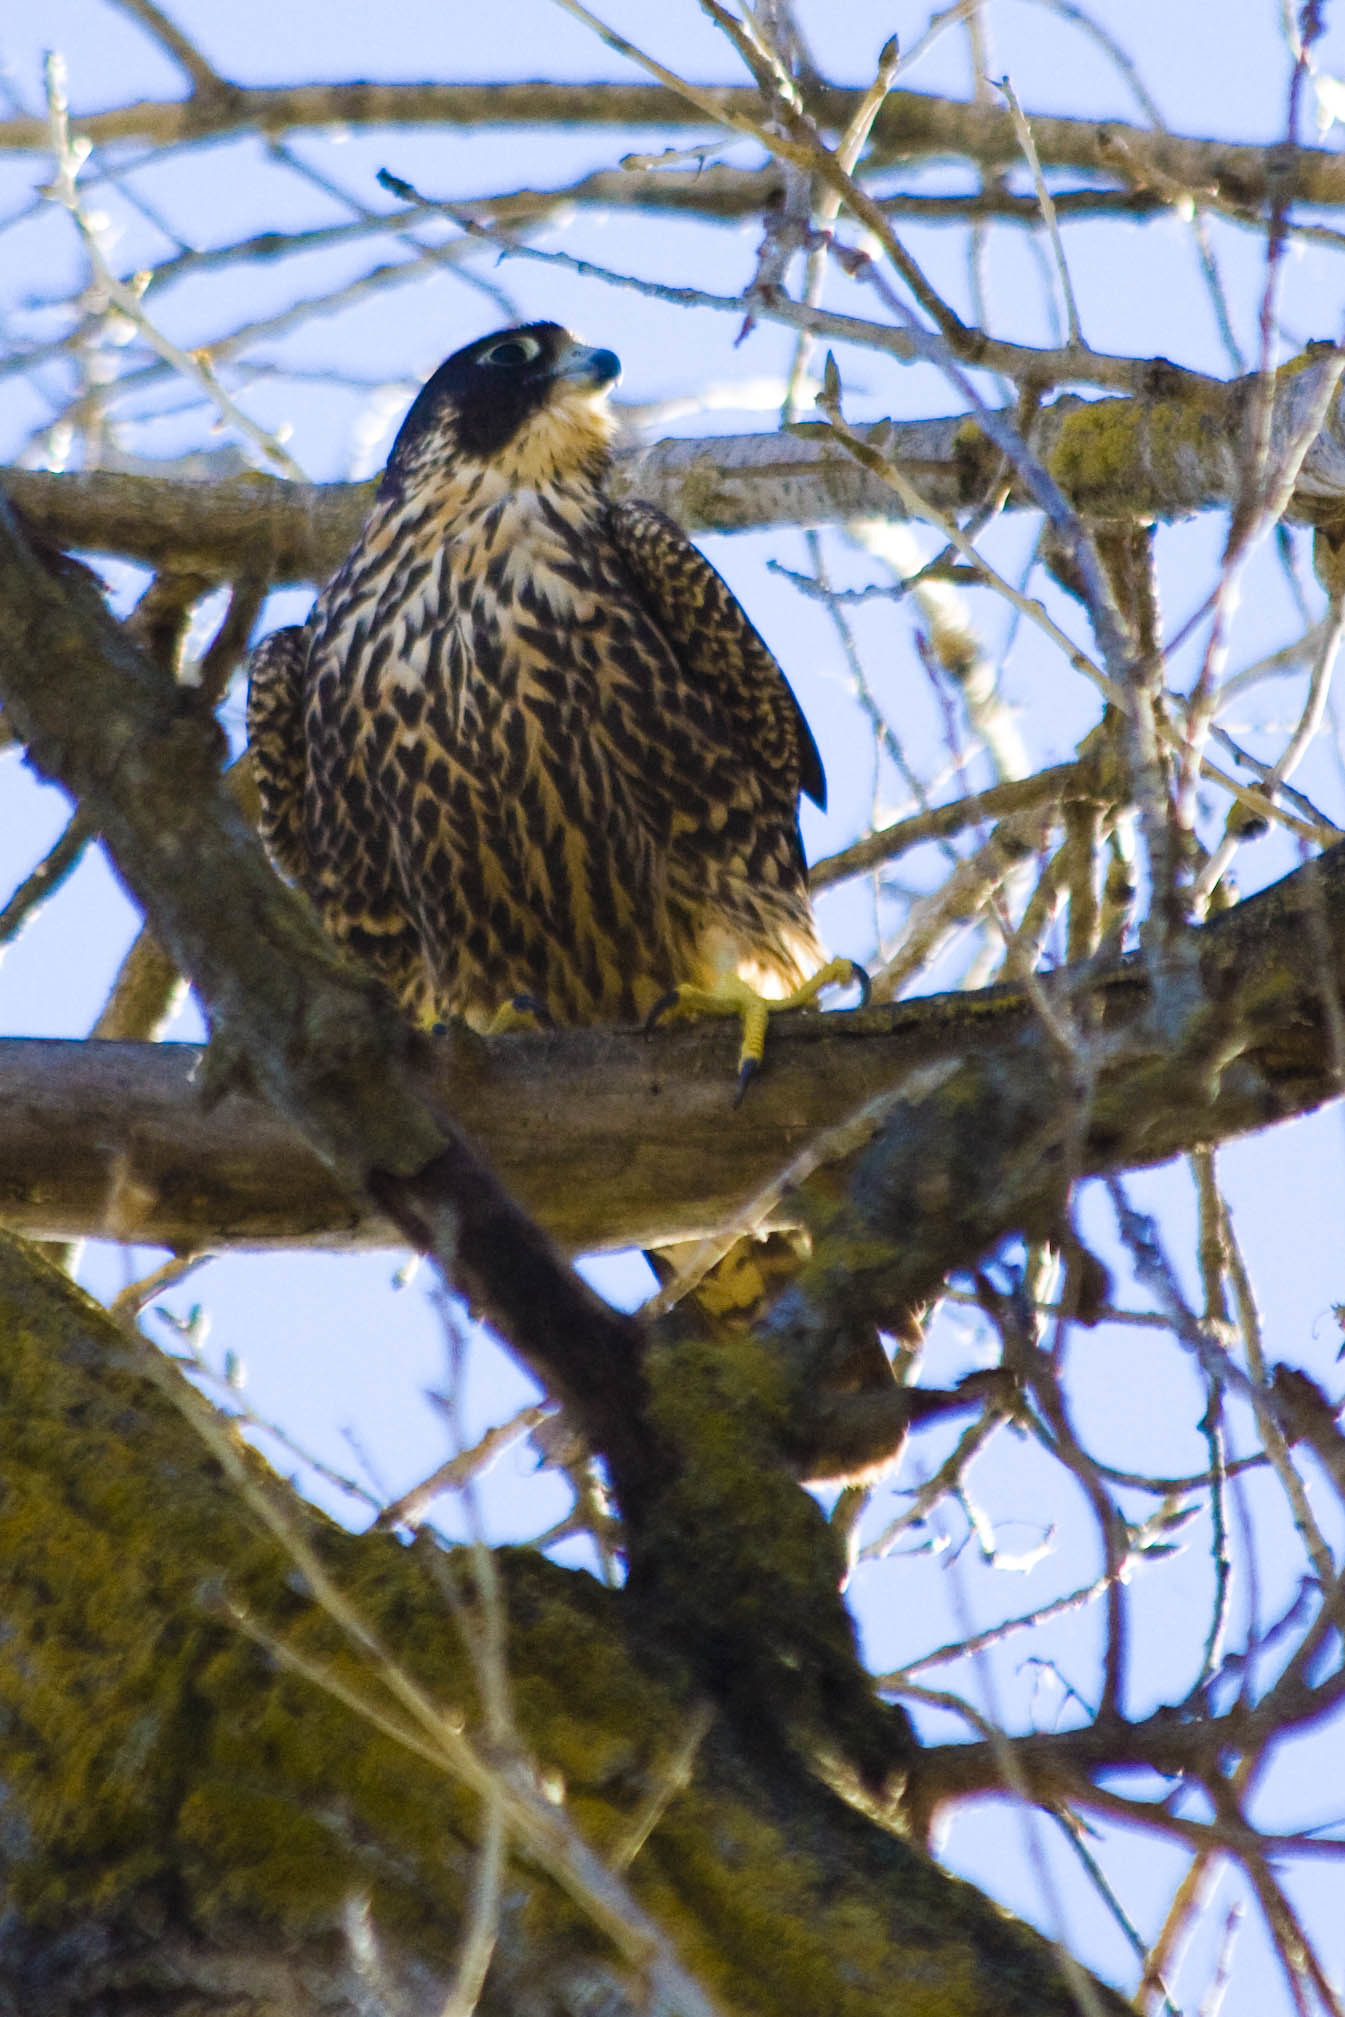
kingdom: Animalia
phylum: Chordata
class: Aves
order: Falconiformes
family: Falconidae
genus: Falco
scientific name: Falco peregrinus
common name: Peregrine falcon
